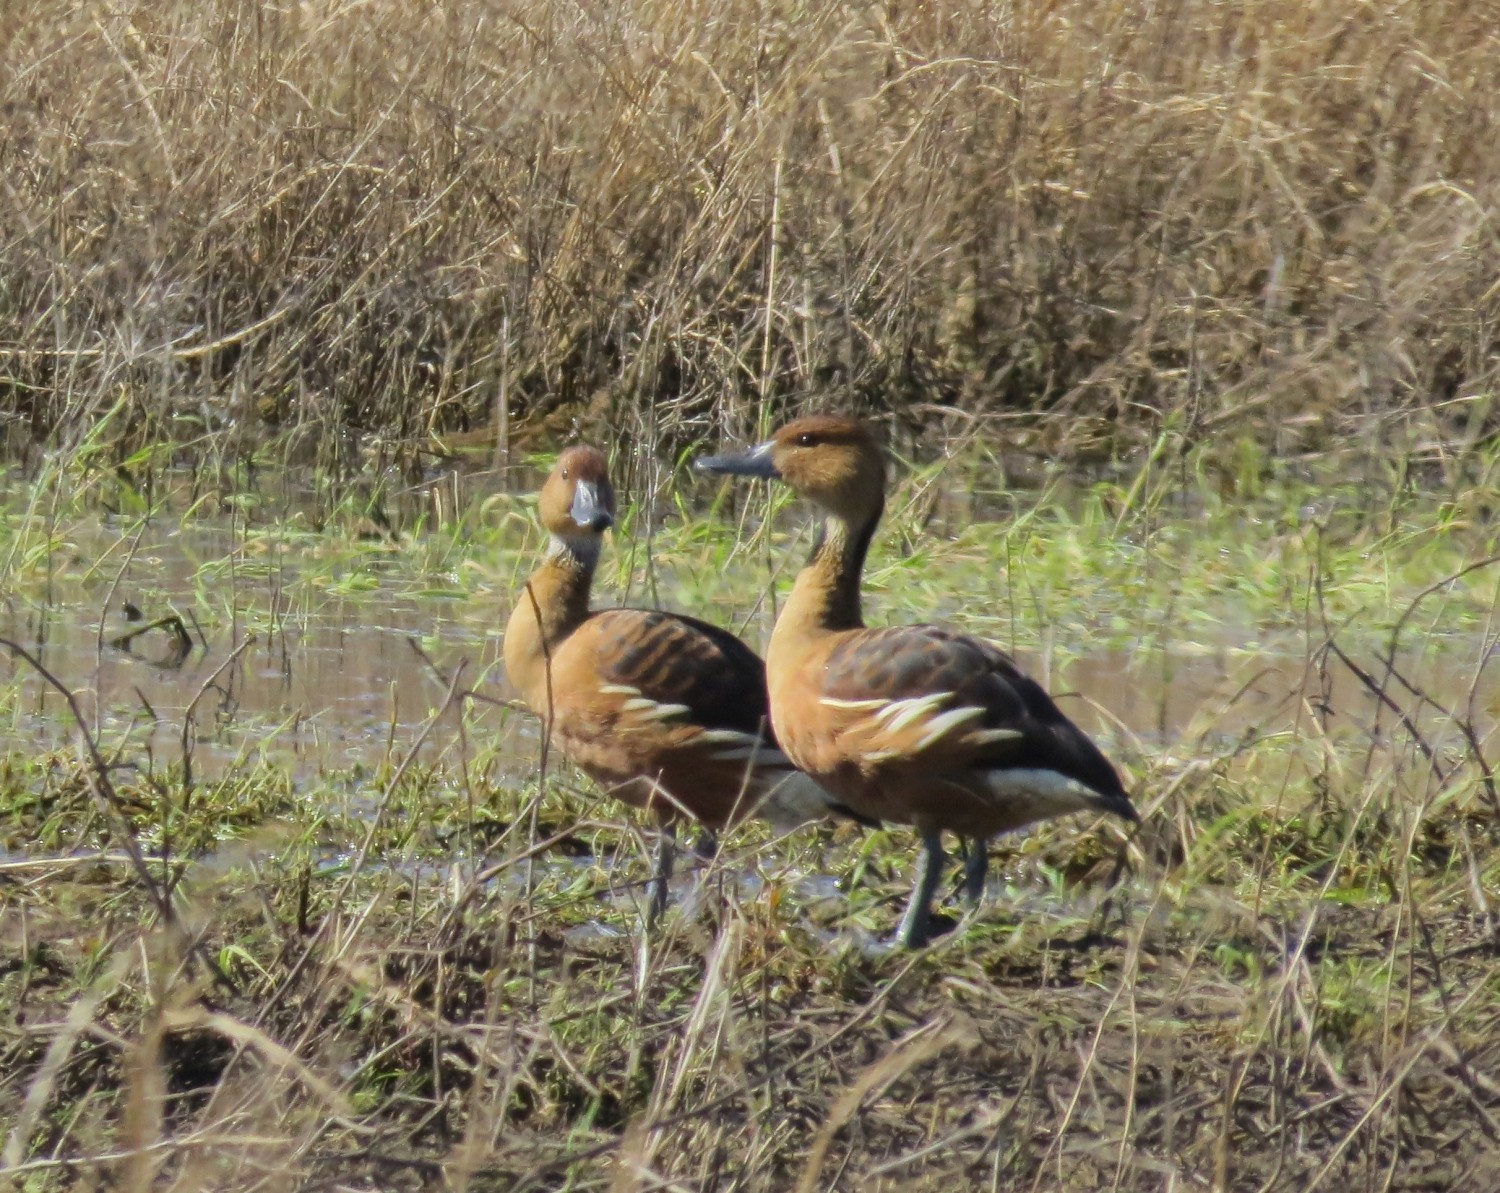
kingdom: Animalia
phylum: Chordata
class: Aves
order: Anseriformes
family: Anatidae
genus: Dendrocygna
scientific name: Dendrocygna bicolor
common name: Fulvous whistling duck
